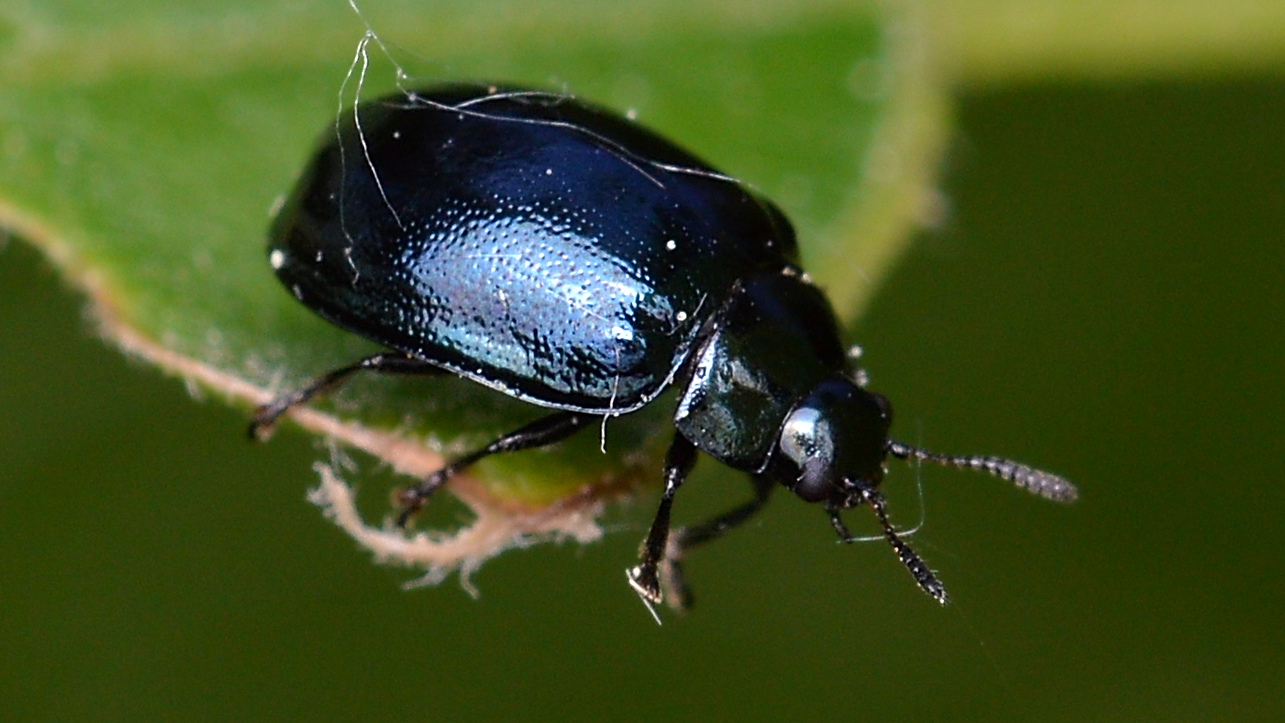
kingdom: Animalia
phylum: Arthropoda
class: Insecta
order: Coleoptera
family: Chrysomelidae
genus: Plagiodera
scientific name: Plagiodera versicolora
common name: Imported willow leaf beetle
